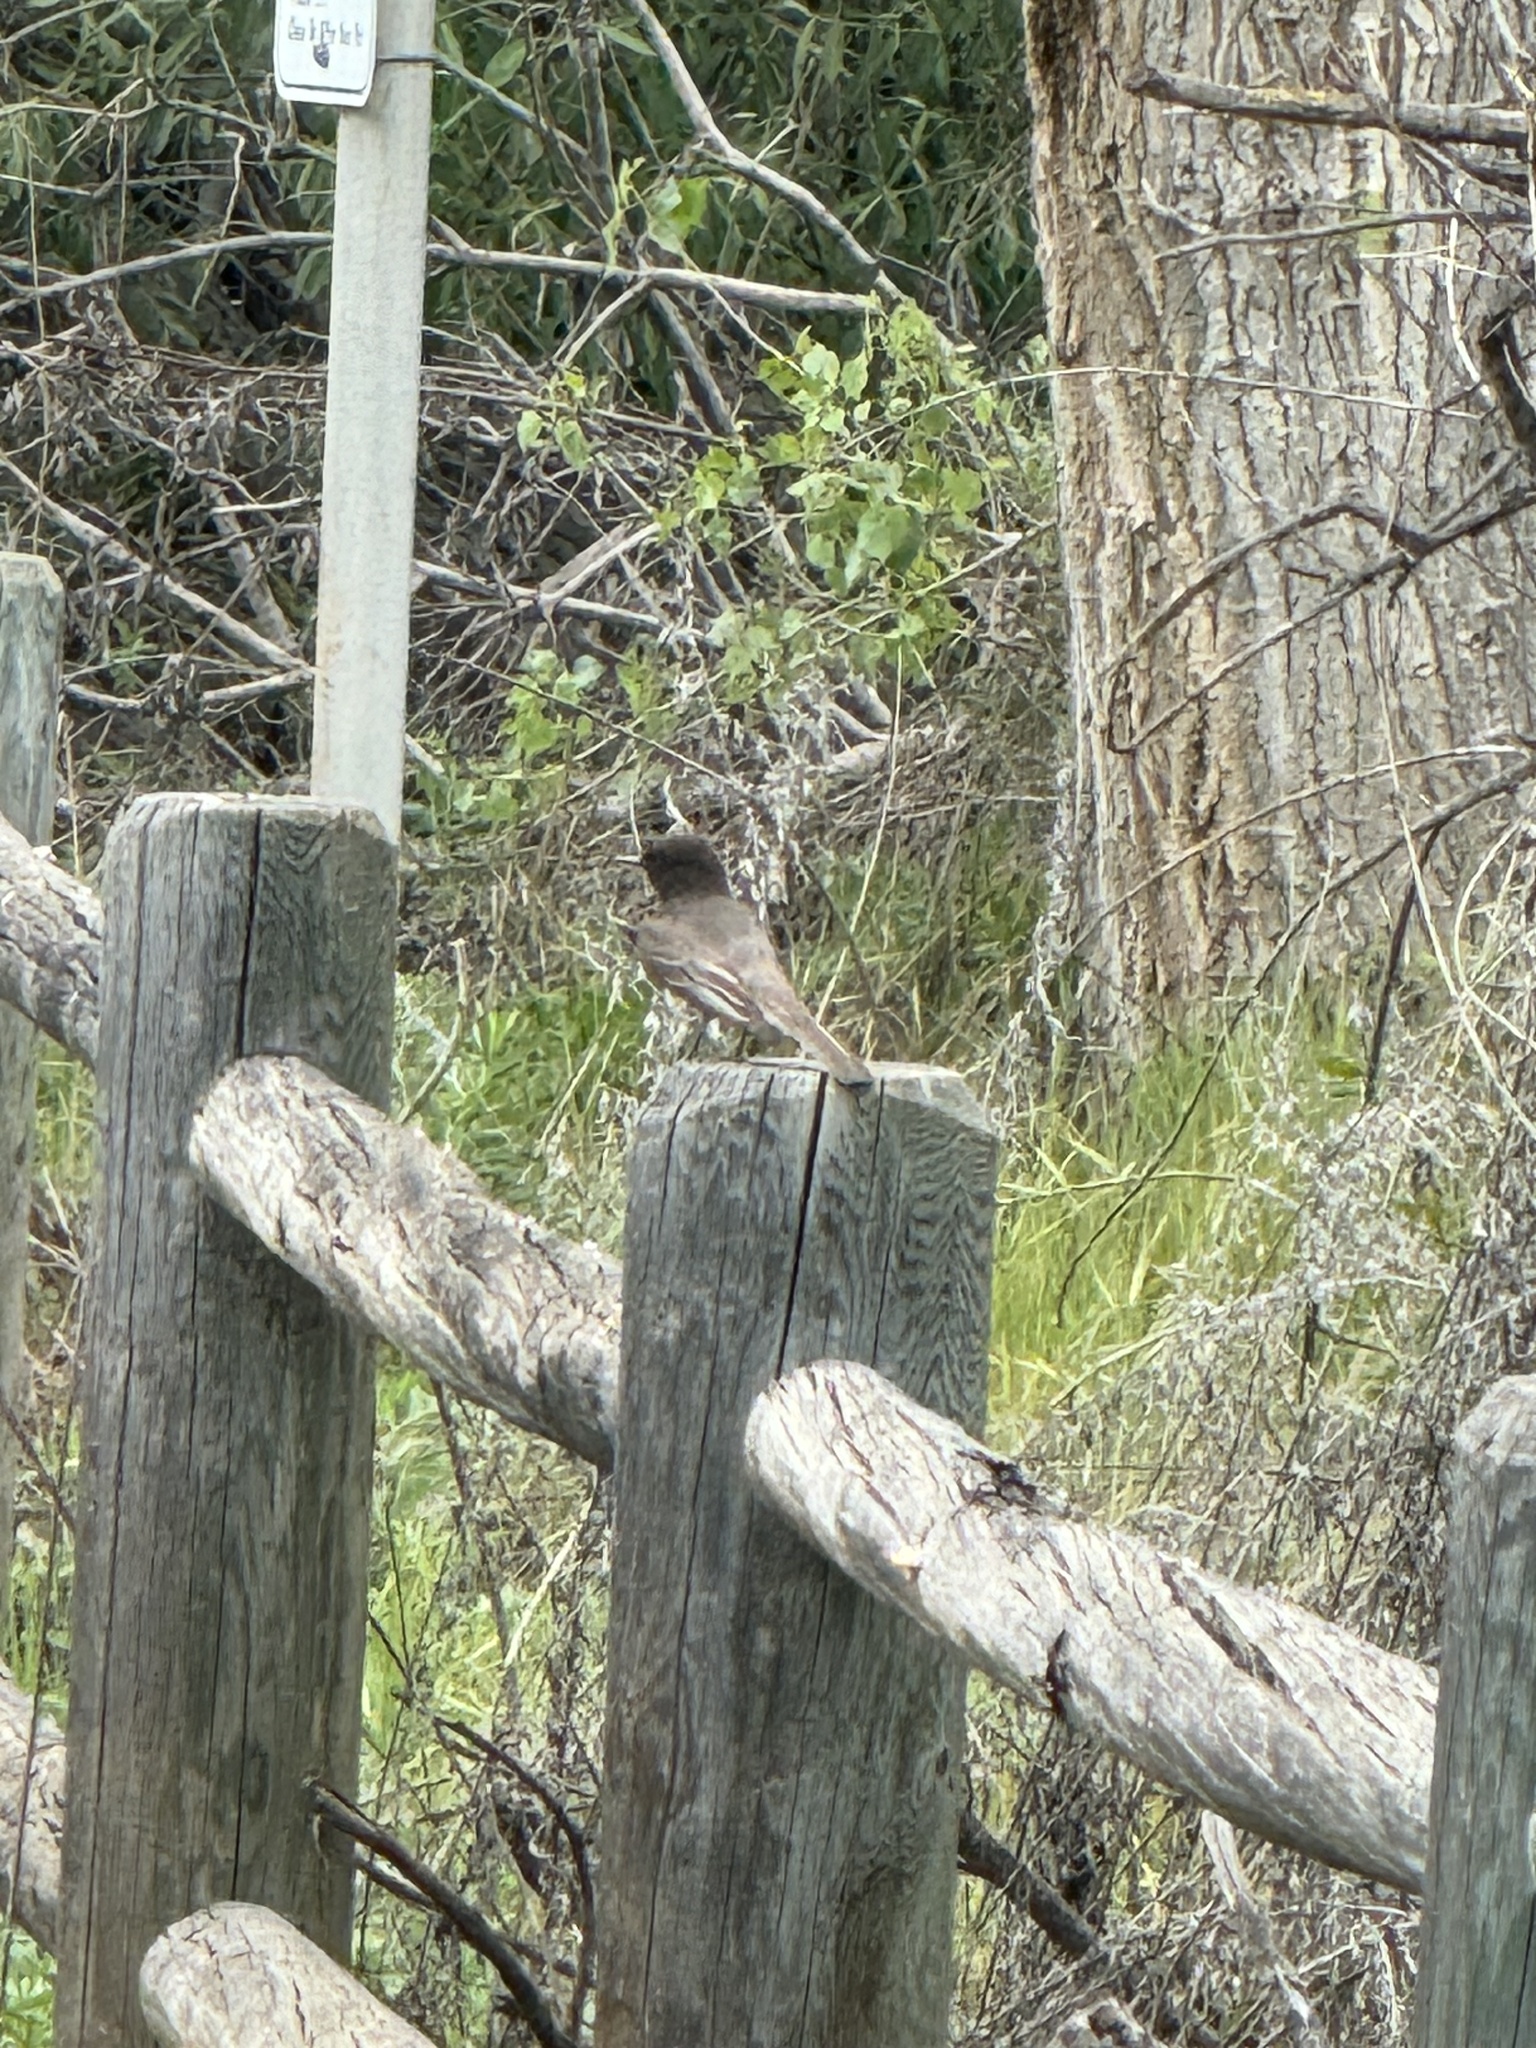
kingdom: Animalia
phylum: Chordata
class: Aves
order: Passeriformes
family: Tyrannidae
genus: Sayornis
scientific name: Sayornis nigricans
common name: Black phoebe
